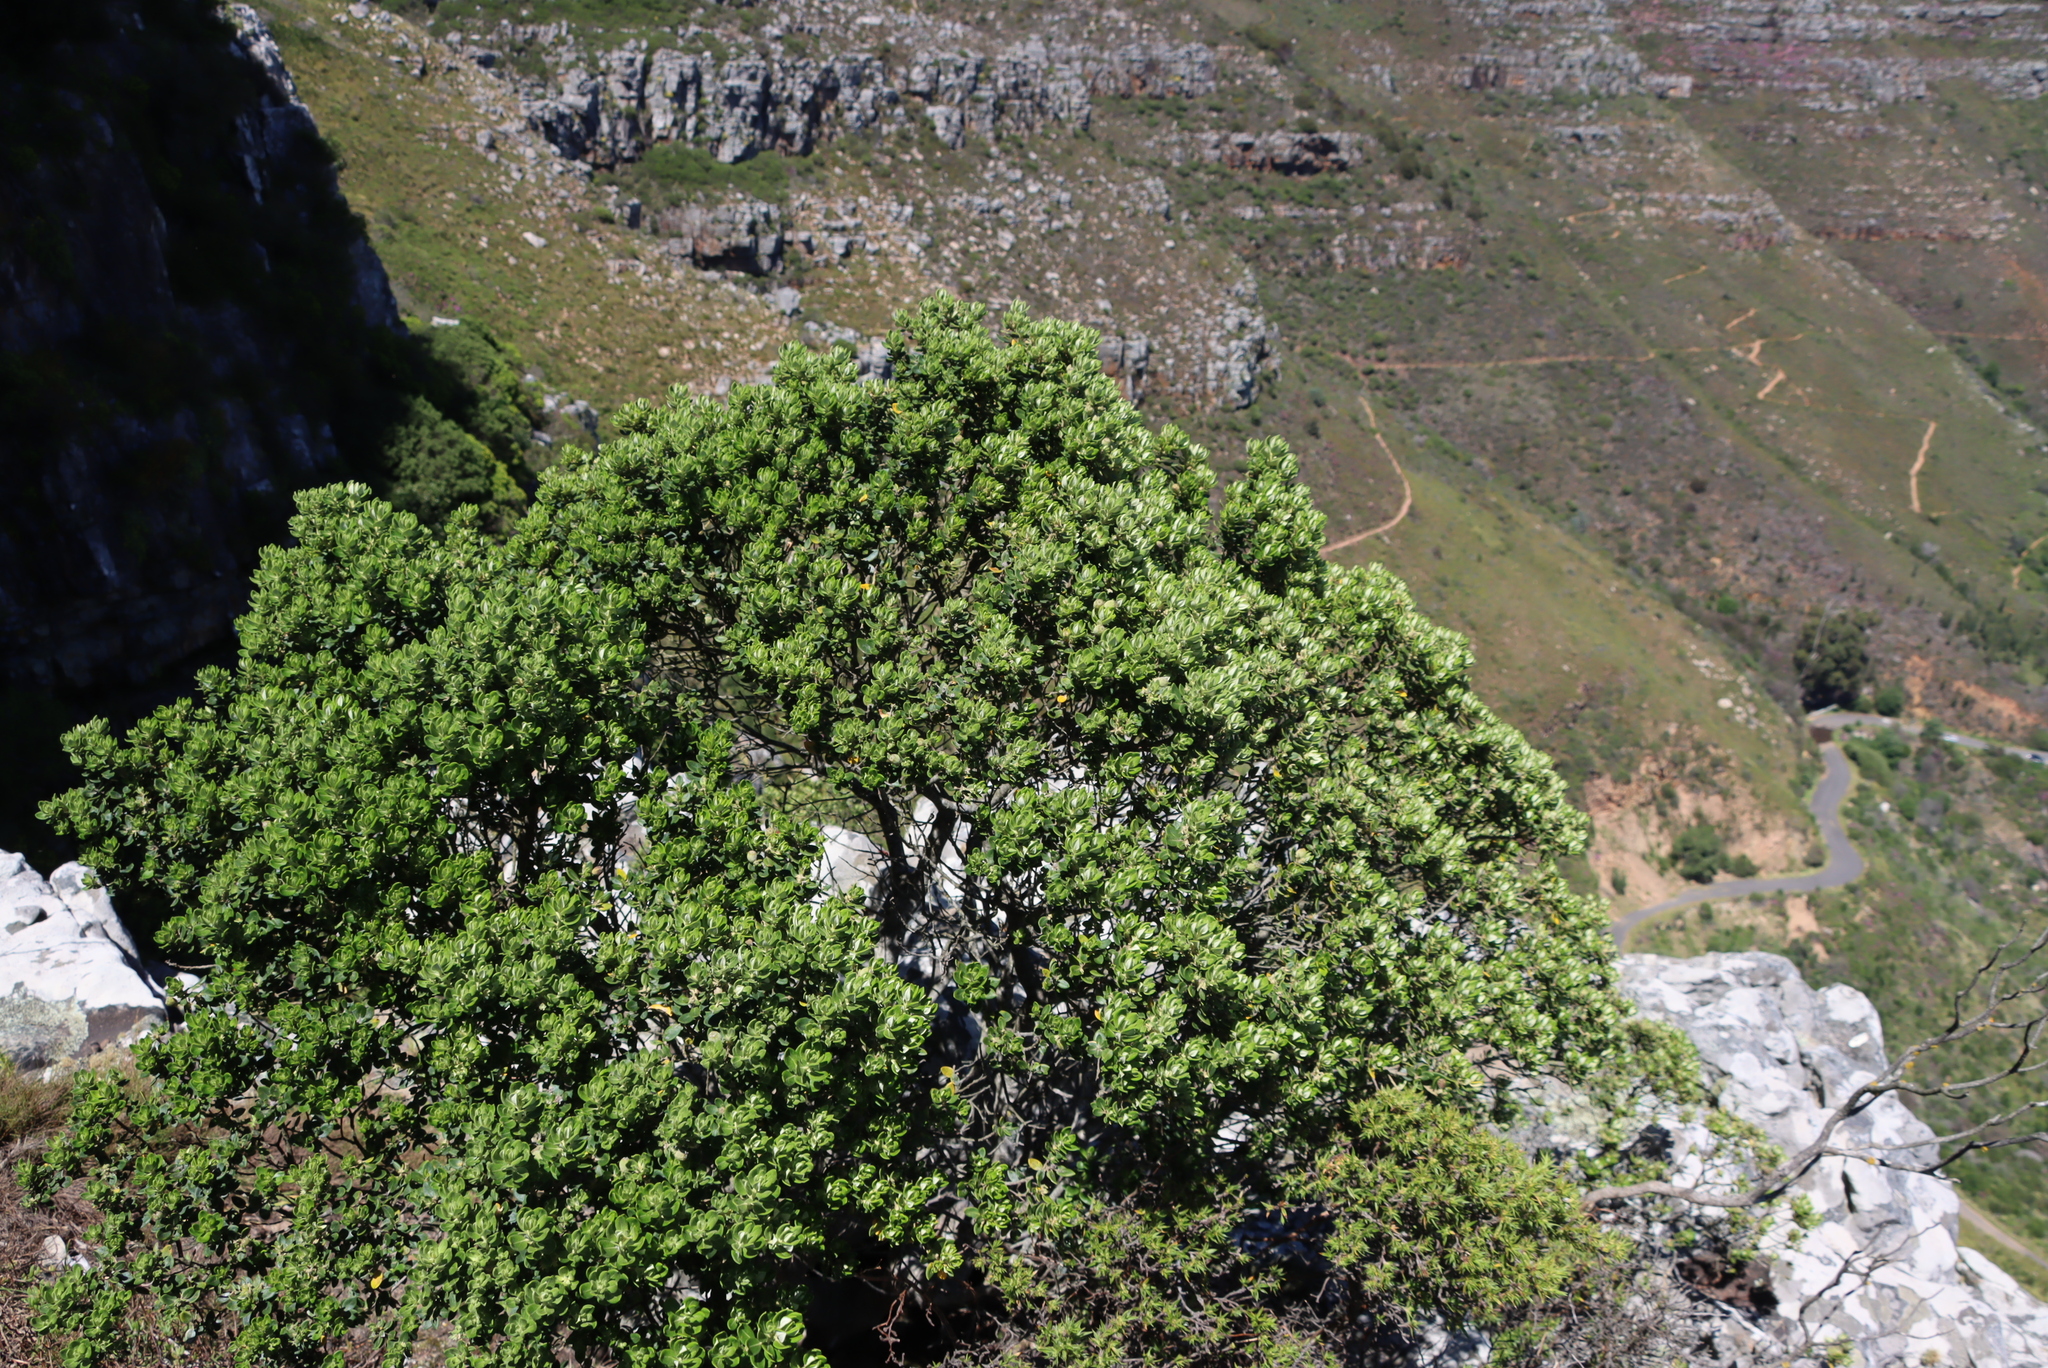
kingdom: Plantae
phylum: Tracheophyta
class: Magnoliopsida
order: Rosales
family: Rhamnaceae
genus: Phylica
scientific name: Phylica buxifolia
